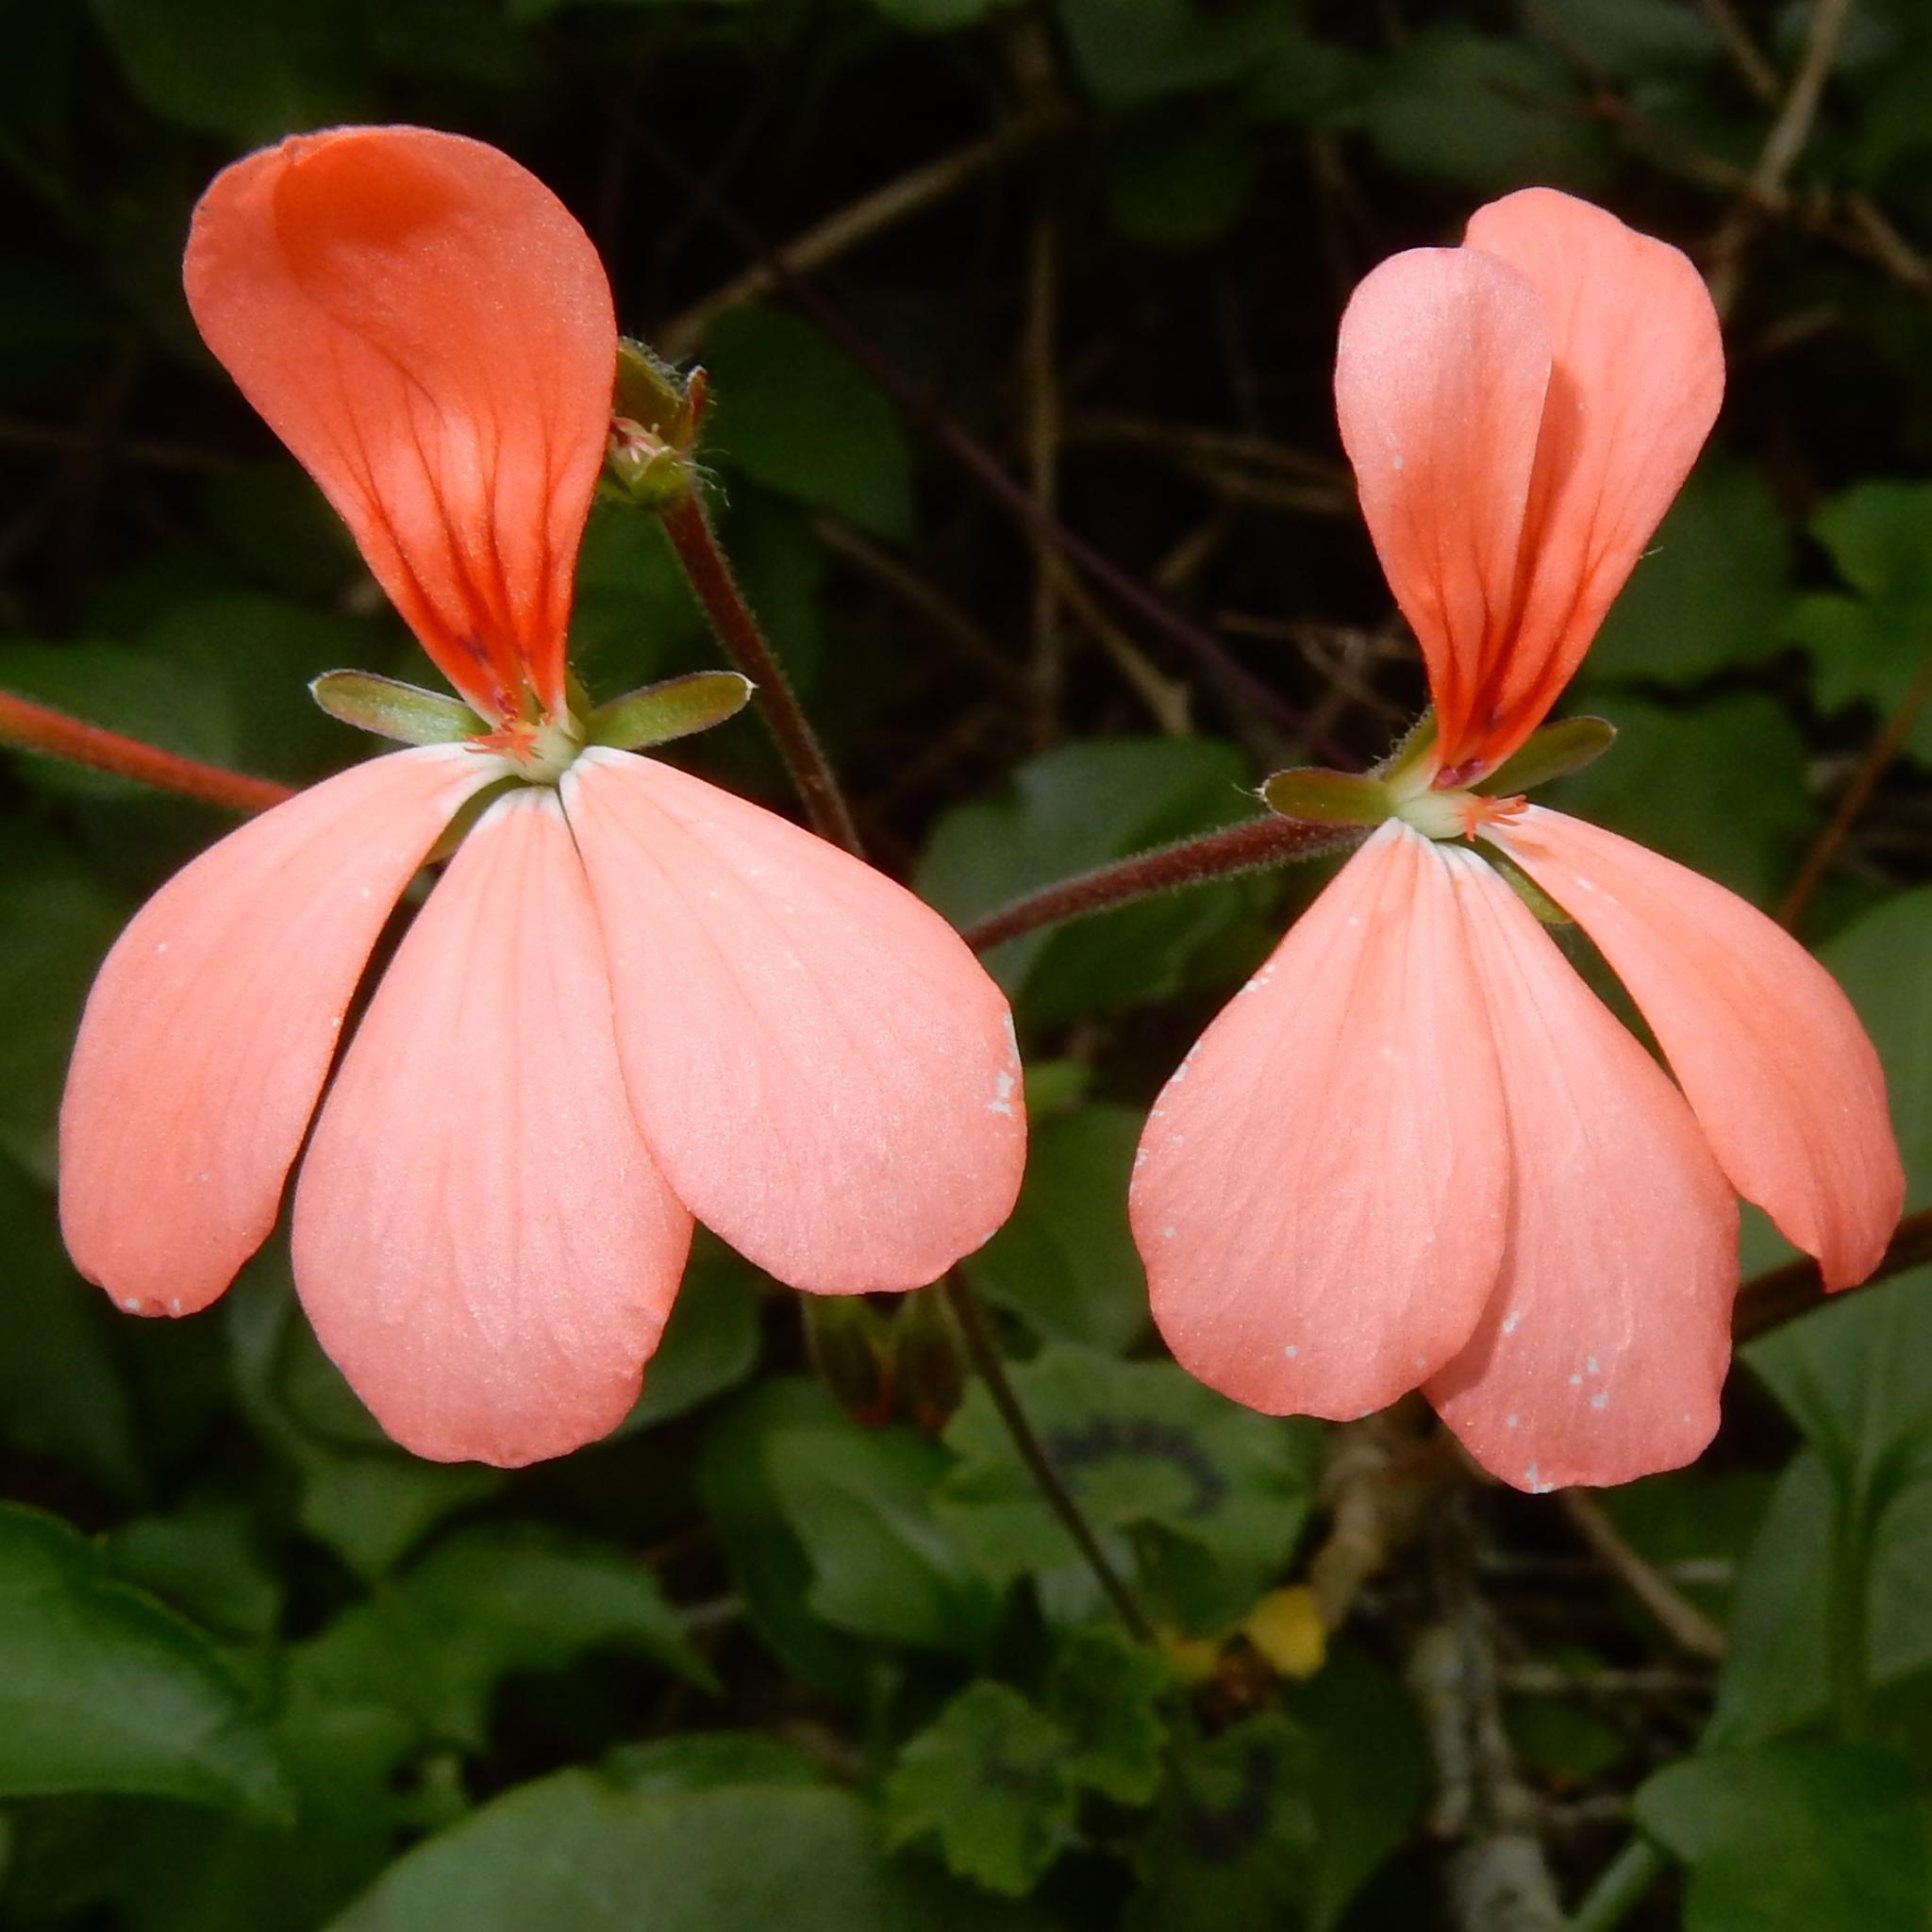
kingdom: Plantae
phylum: Tracheophyta
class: Magnoliopsida
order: Geraniales
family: Geraniaceae
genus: Pelargonium
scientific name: Pelargonium frutetorum
